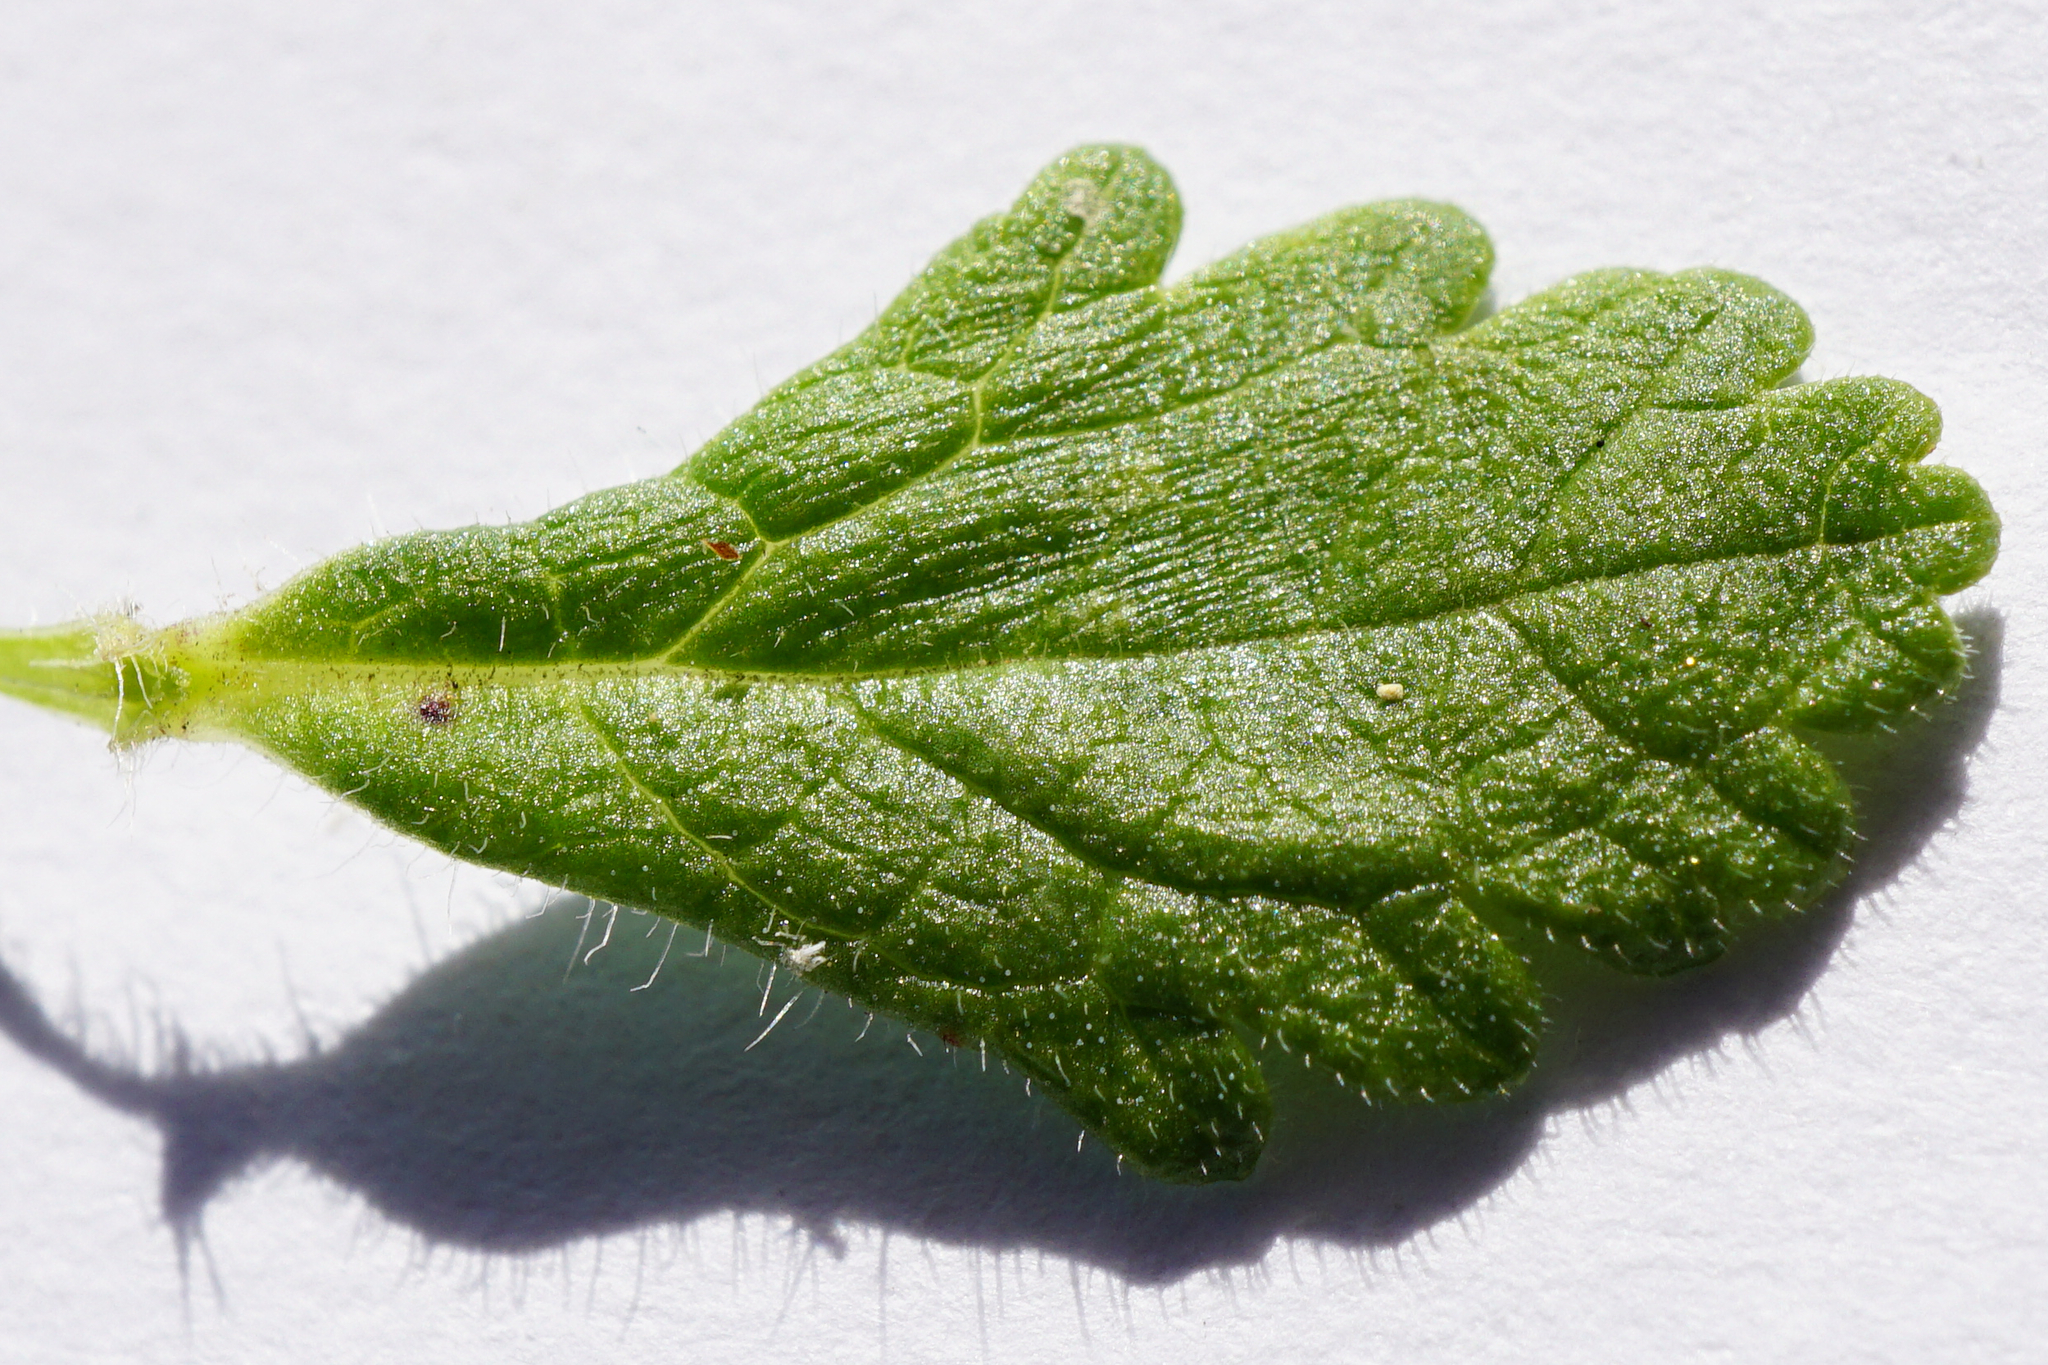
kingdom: Plantae
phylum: Tracheophyta
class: Magnoliopsida
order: Lamiales
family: Lamiaceae
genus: Teucrium
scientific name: Teucrium chamaedrys
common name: Wall germander
